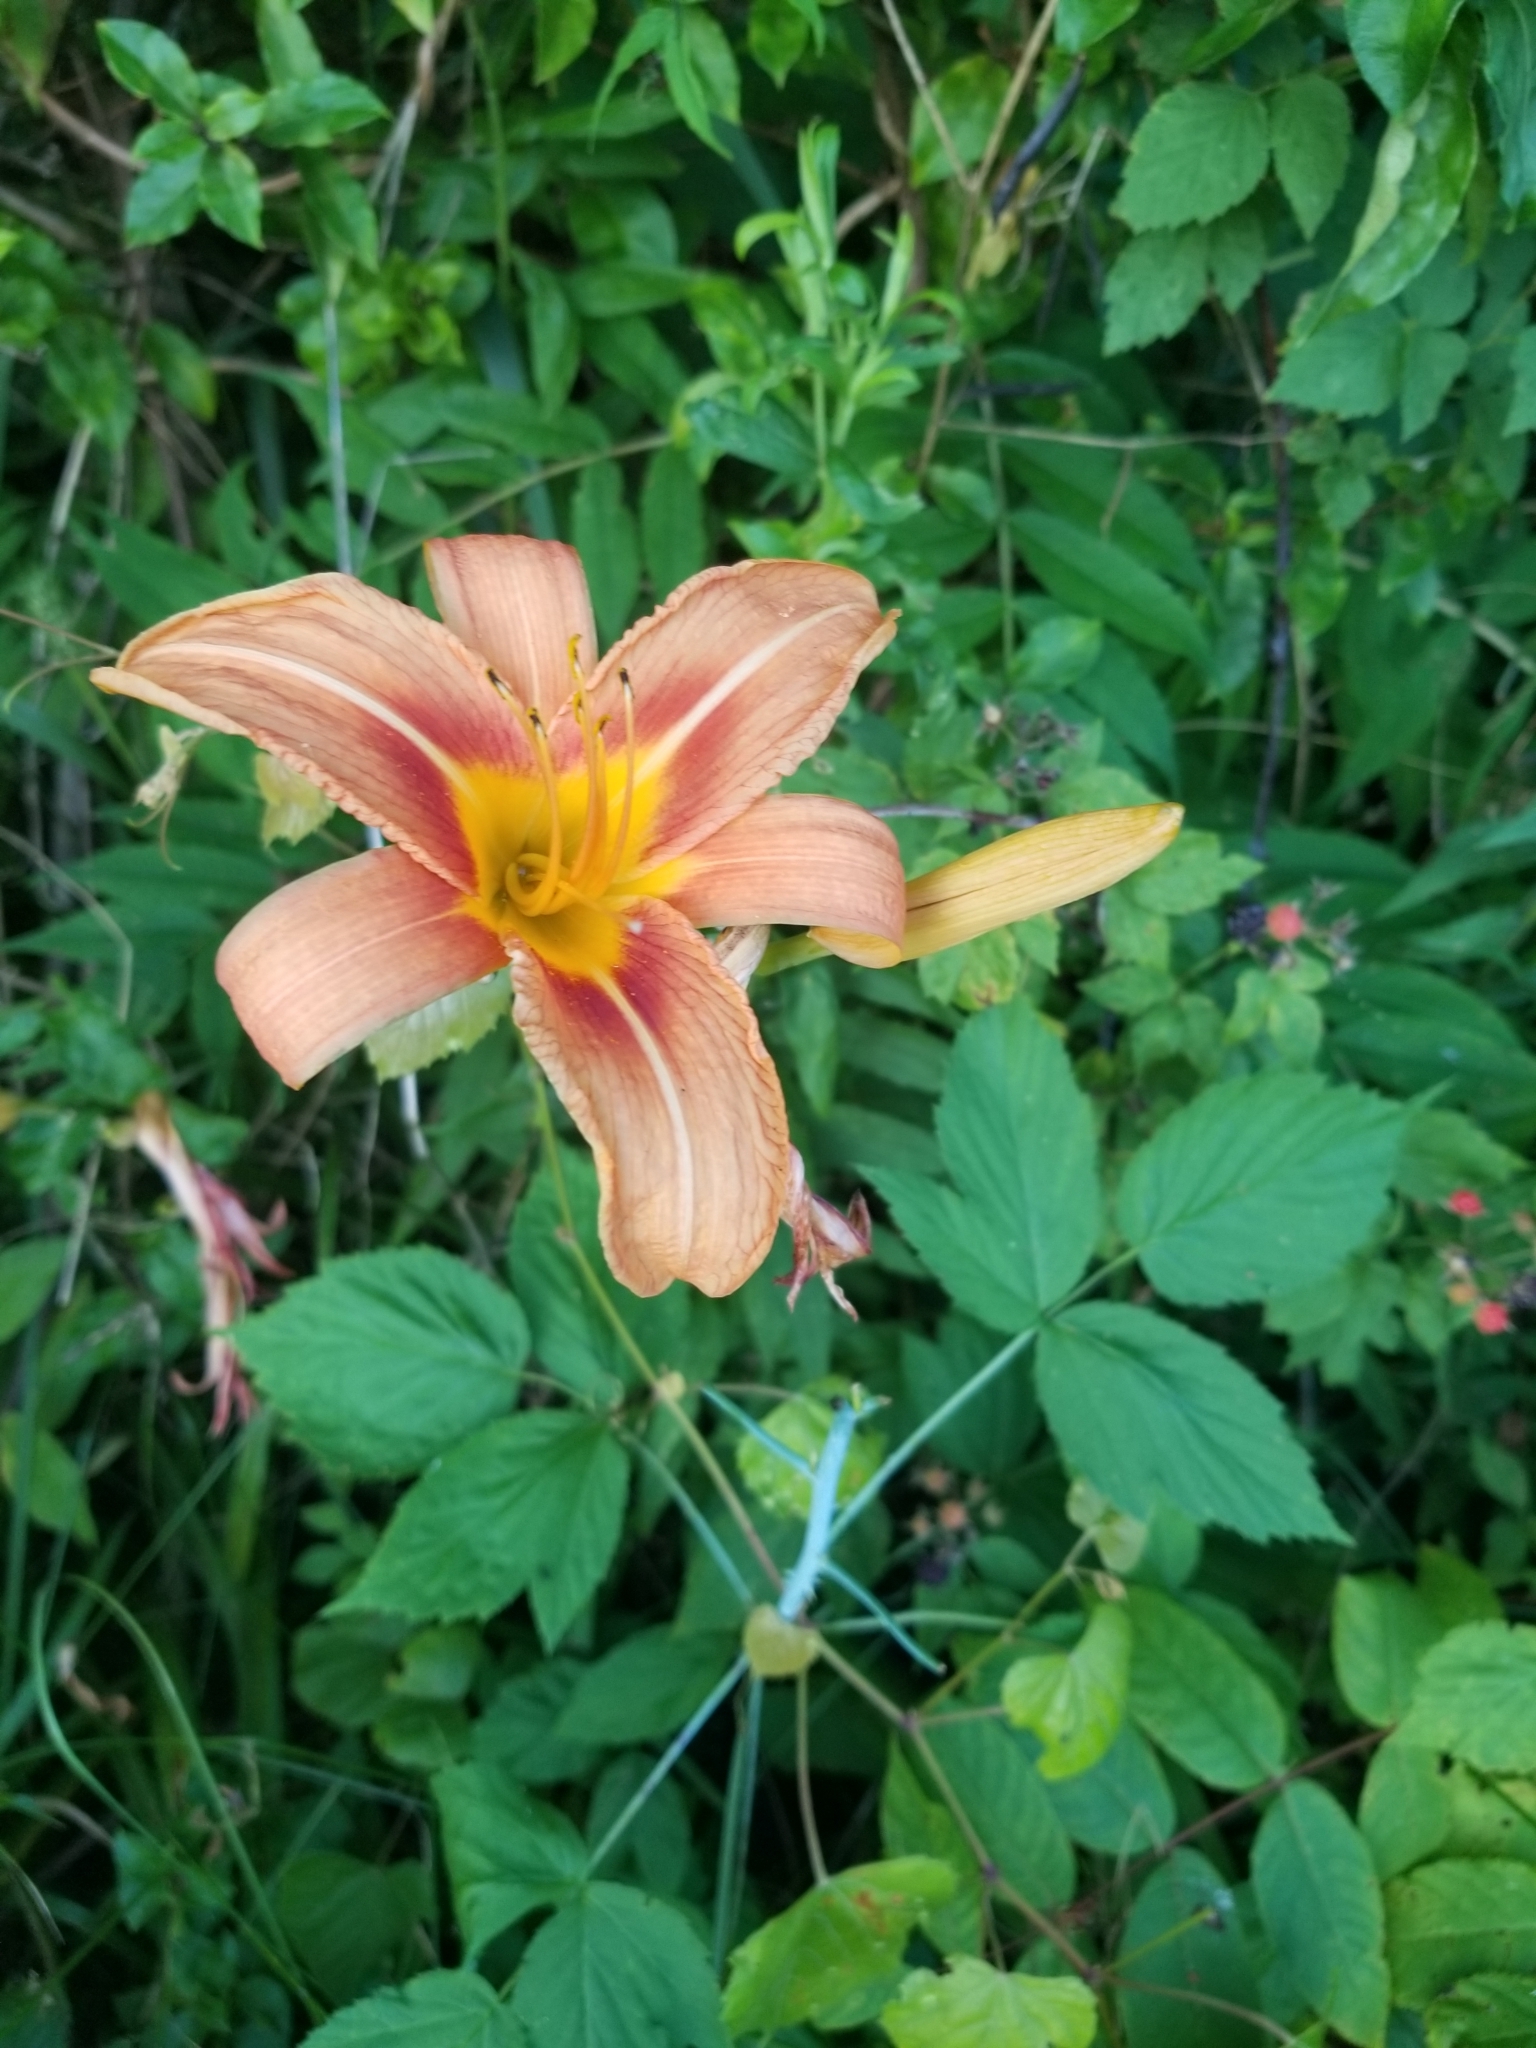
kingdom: Plantae
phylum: Tracheophyta
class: Liliopsida
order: Asparagales
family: Asphodelaceae
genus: Hemerocallis
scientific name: Hemerocallis fulva
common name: Orange day-lily
